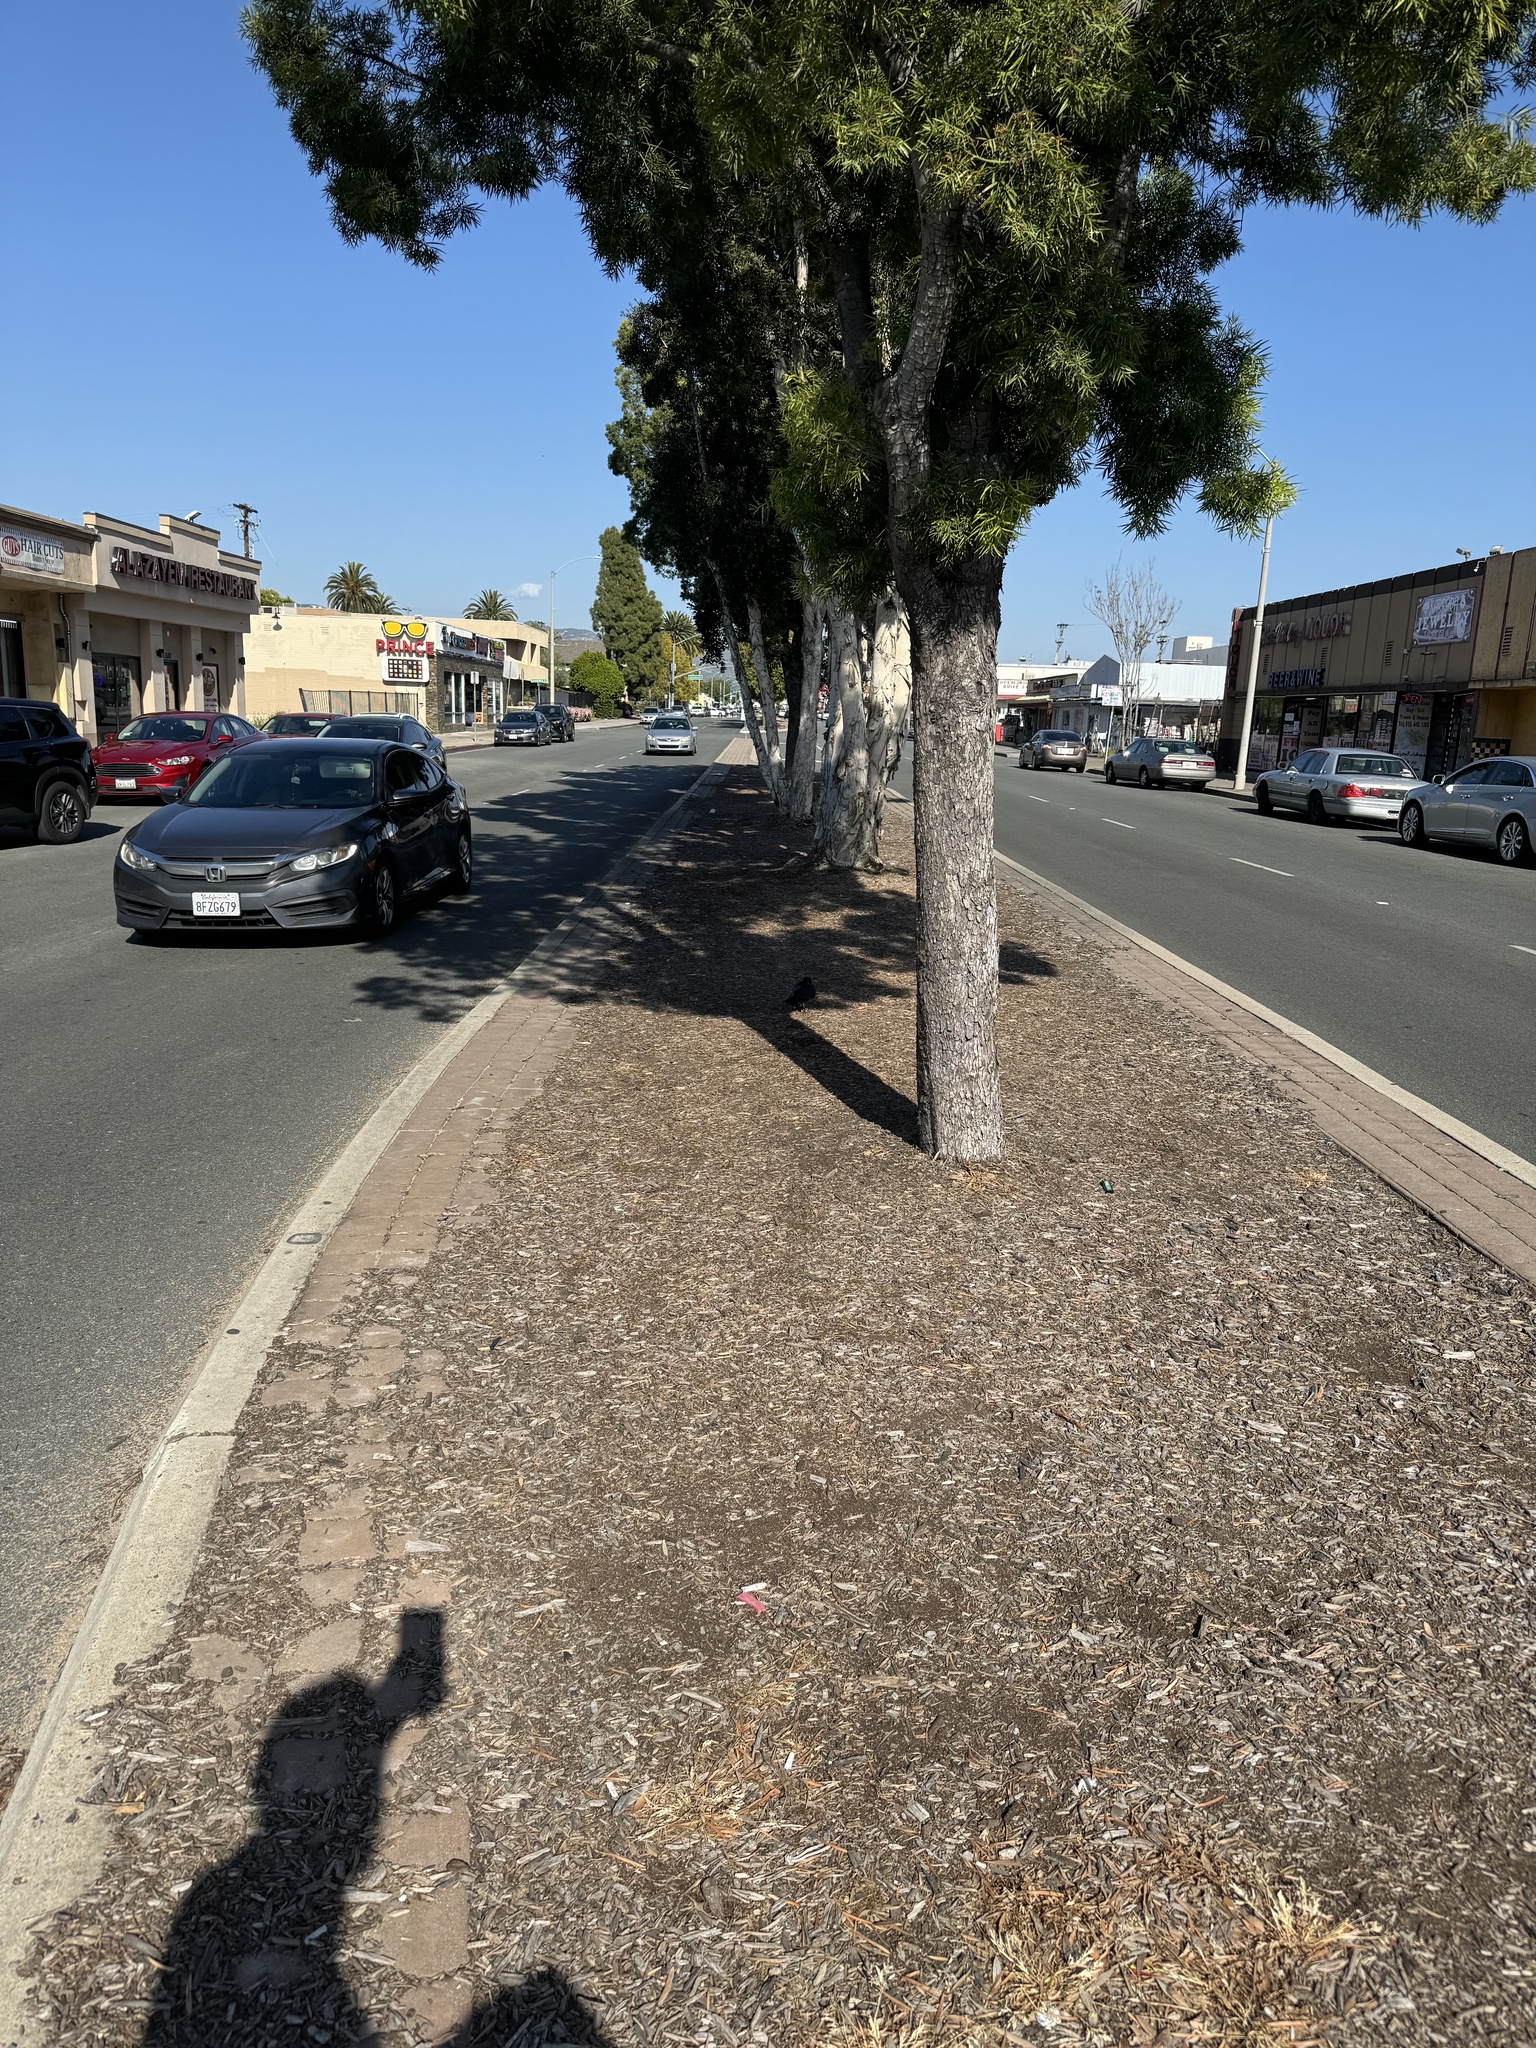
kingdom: Animalia
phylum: Chordata
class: Aves
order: Passeriformes
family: Corvidae
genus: Corvus
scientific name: Corvus corax
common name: Common raven
